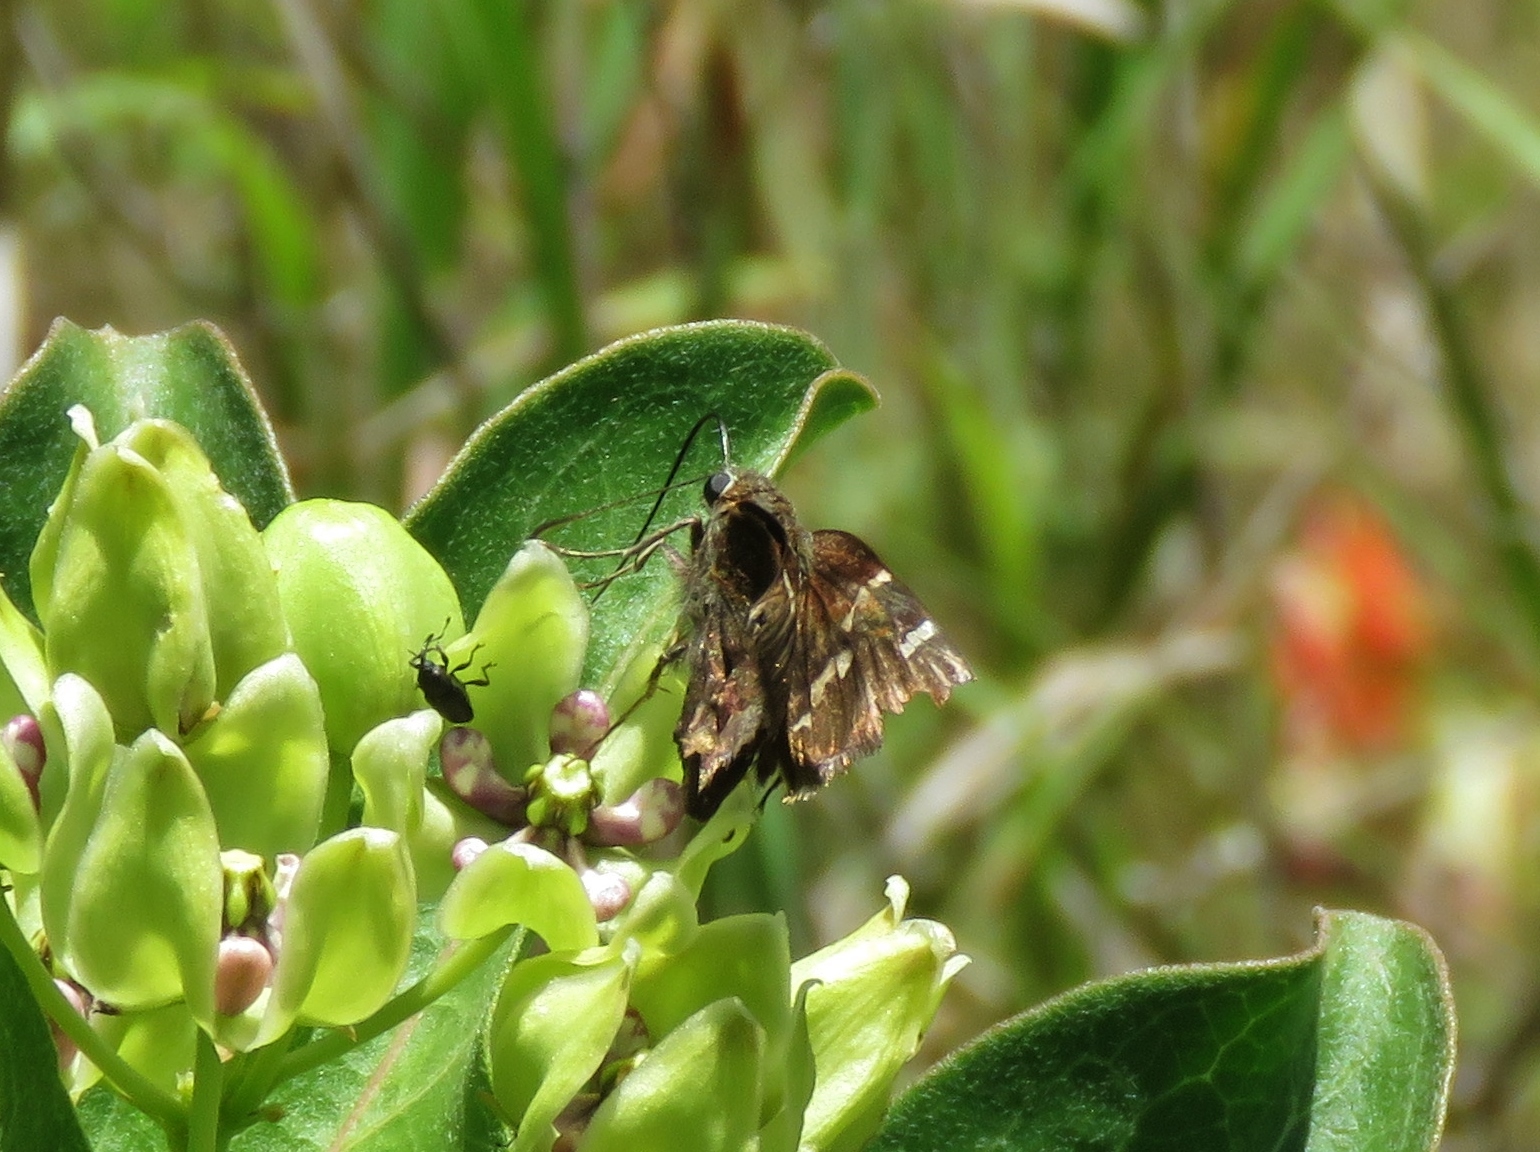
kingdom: Animalia
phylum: Arthropoda
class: Insecta
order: Lepidoptera
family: Hesperiidae
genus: Thorybes
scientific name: Thorybes daunus
